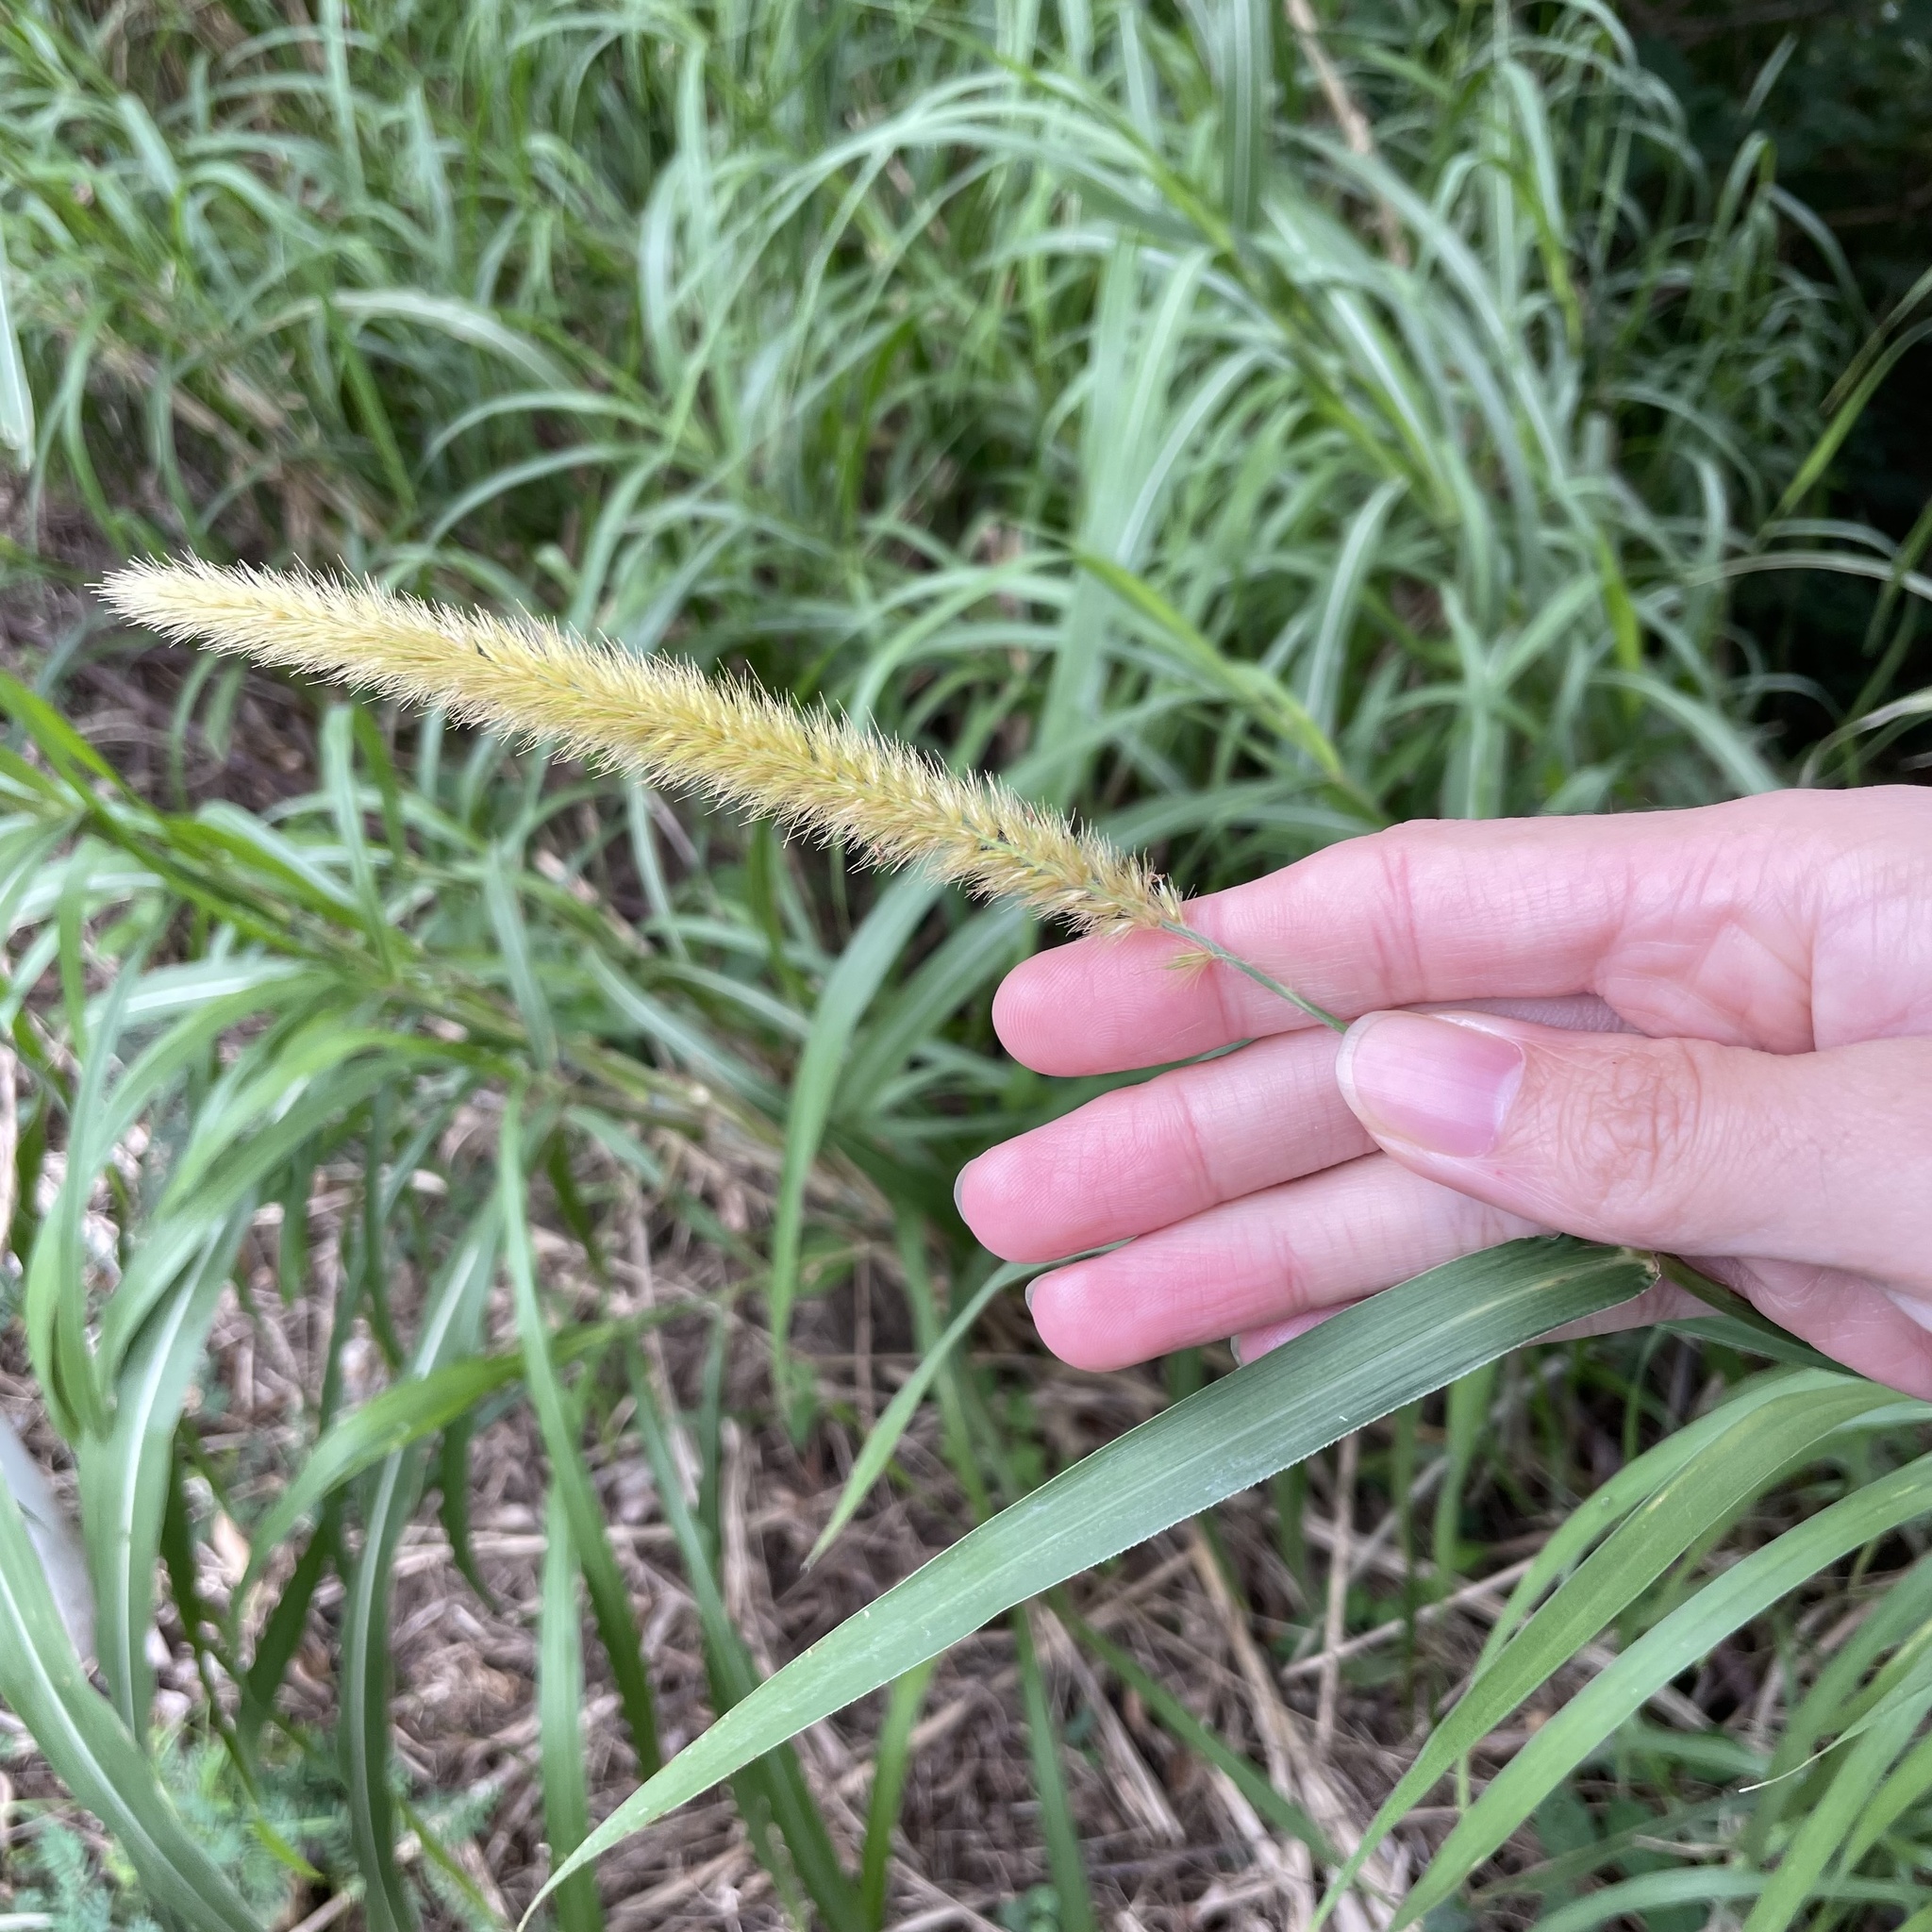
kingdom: Plantae
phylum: Tracheophyta
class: Liliopsida
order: Poales
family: Poaceae
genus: Cenchrus
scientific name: Cenchrus purpureus
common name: Elephant grass
